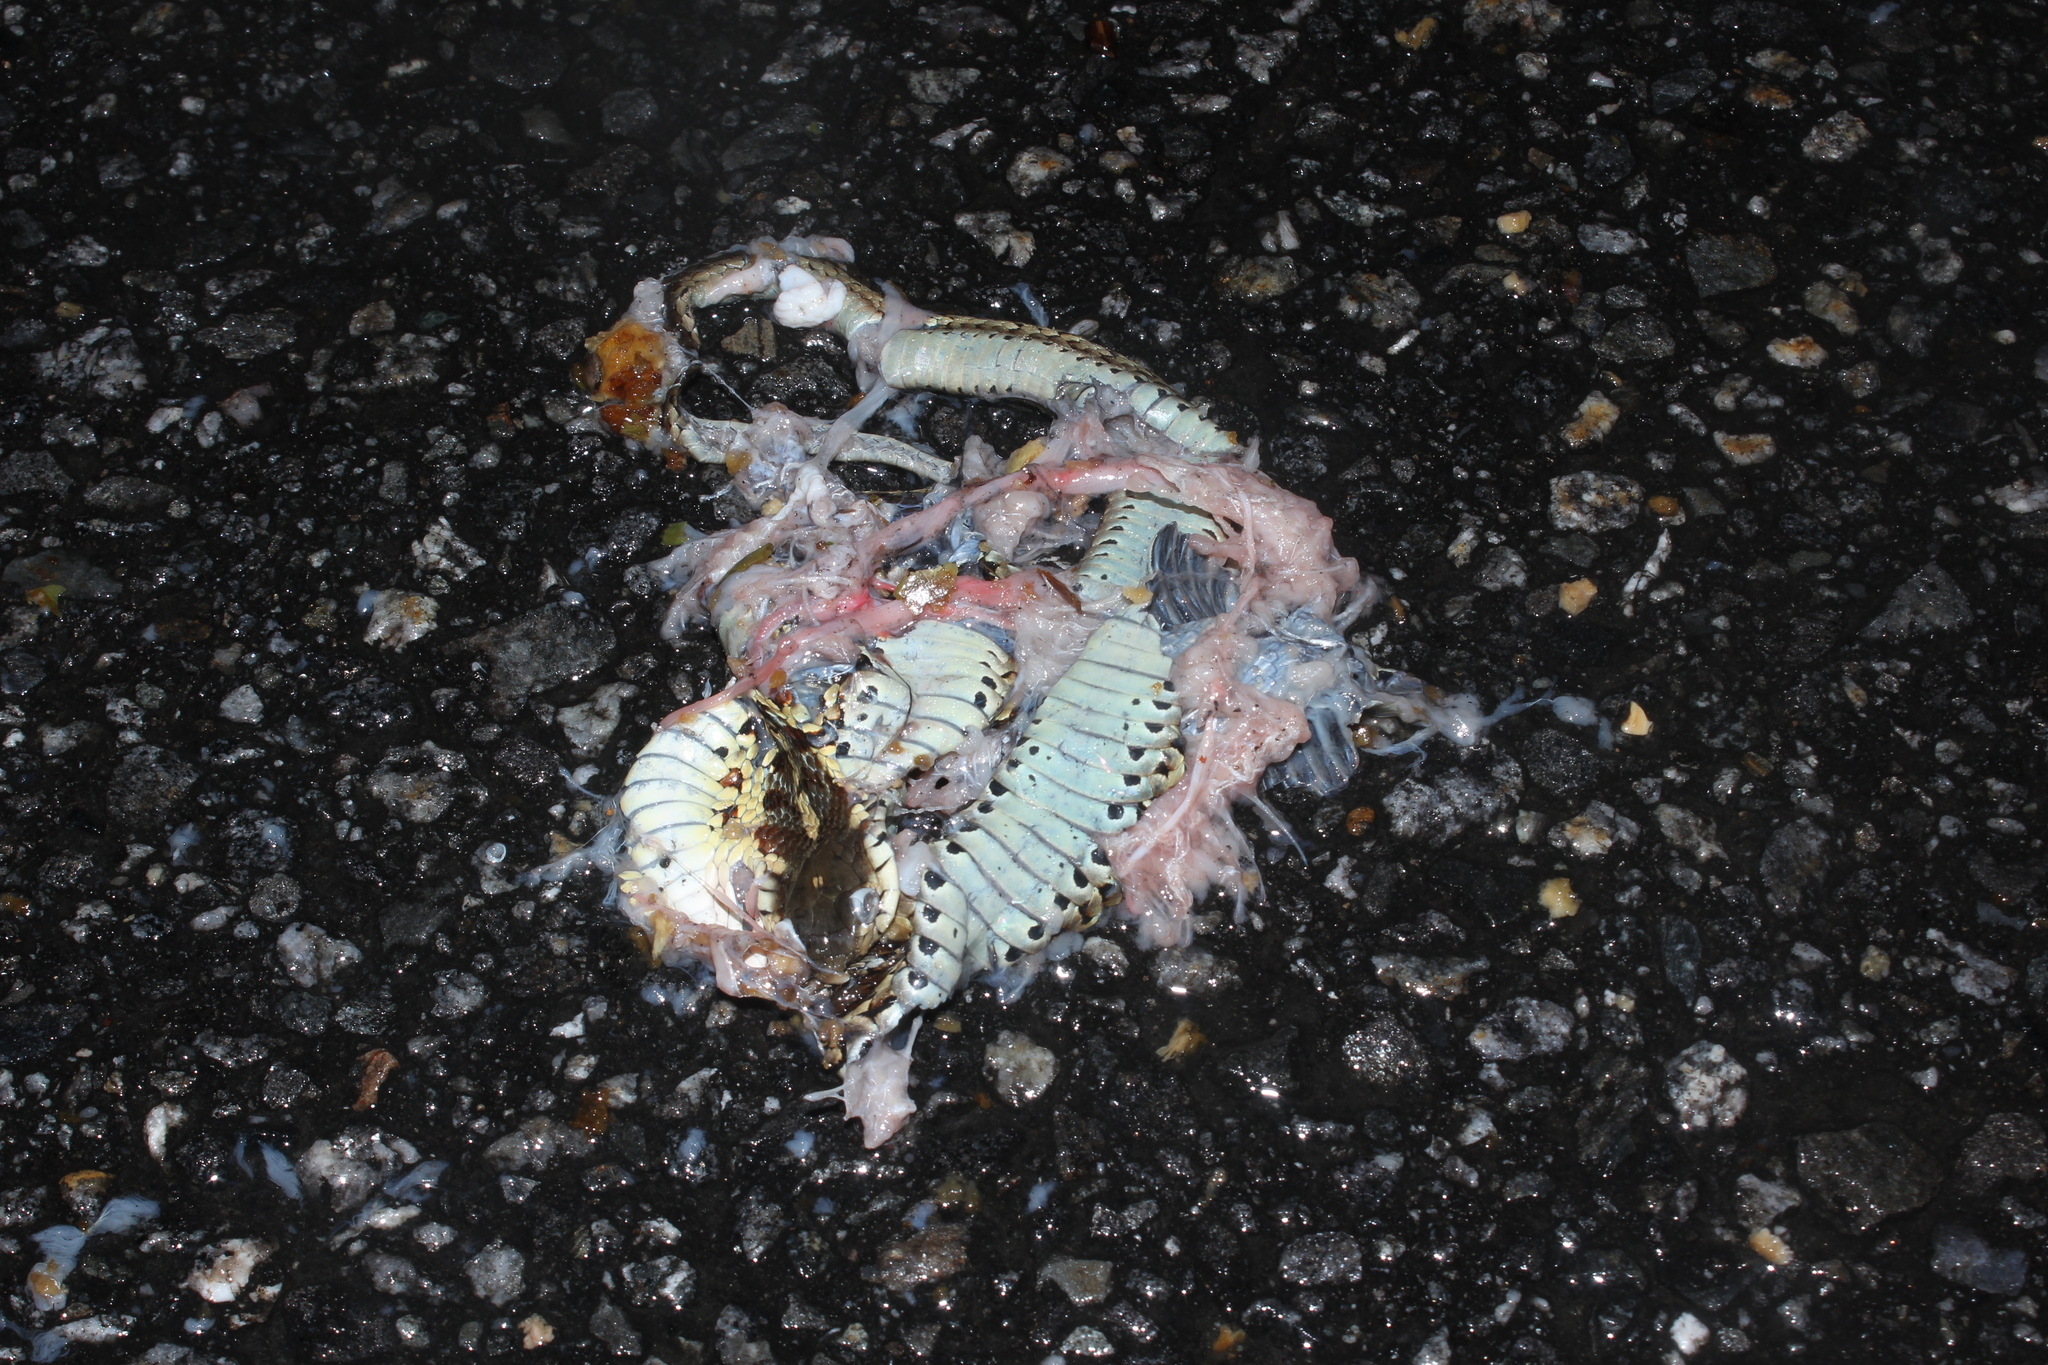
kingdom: Animalia
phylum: Chordata
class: Squamata
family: Colubridae
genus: Thamnophis
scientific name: Thamnophis sirtalis
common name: Common garter snake
